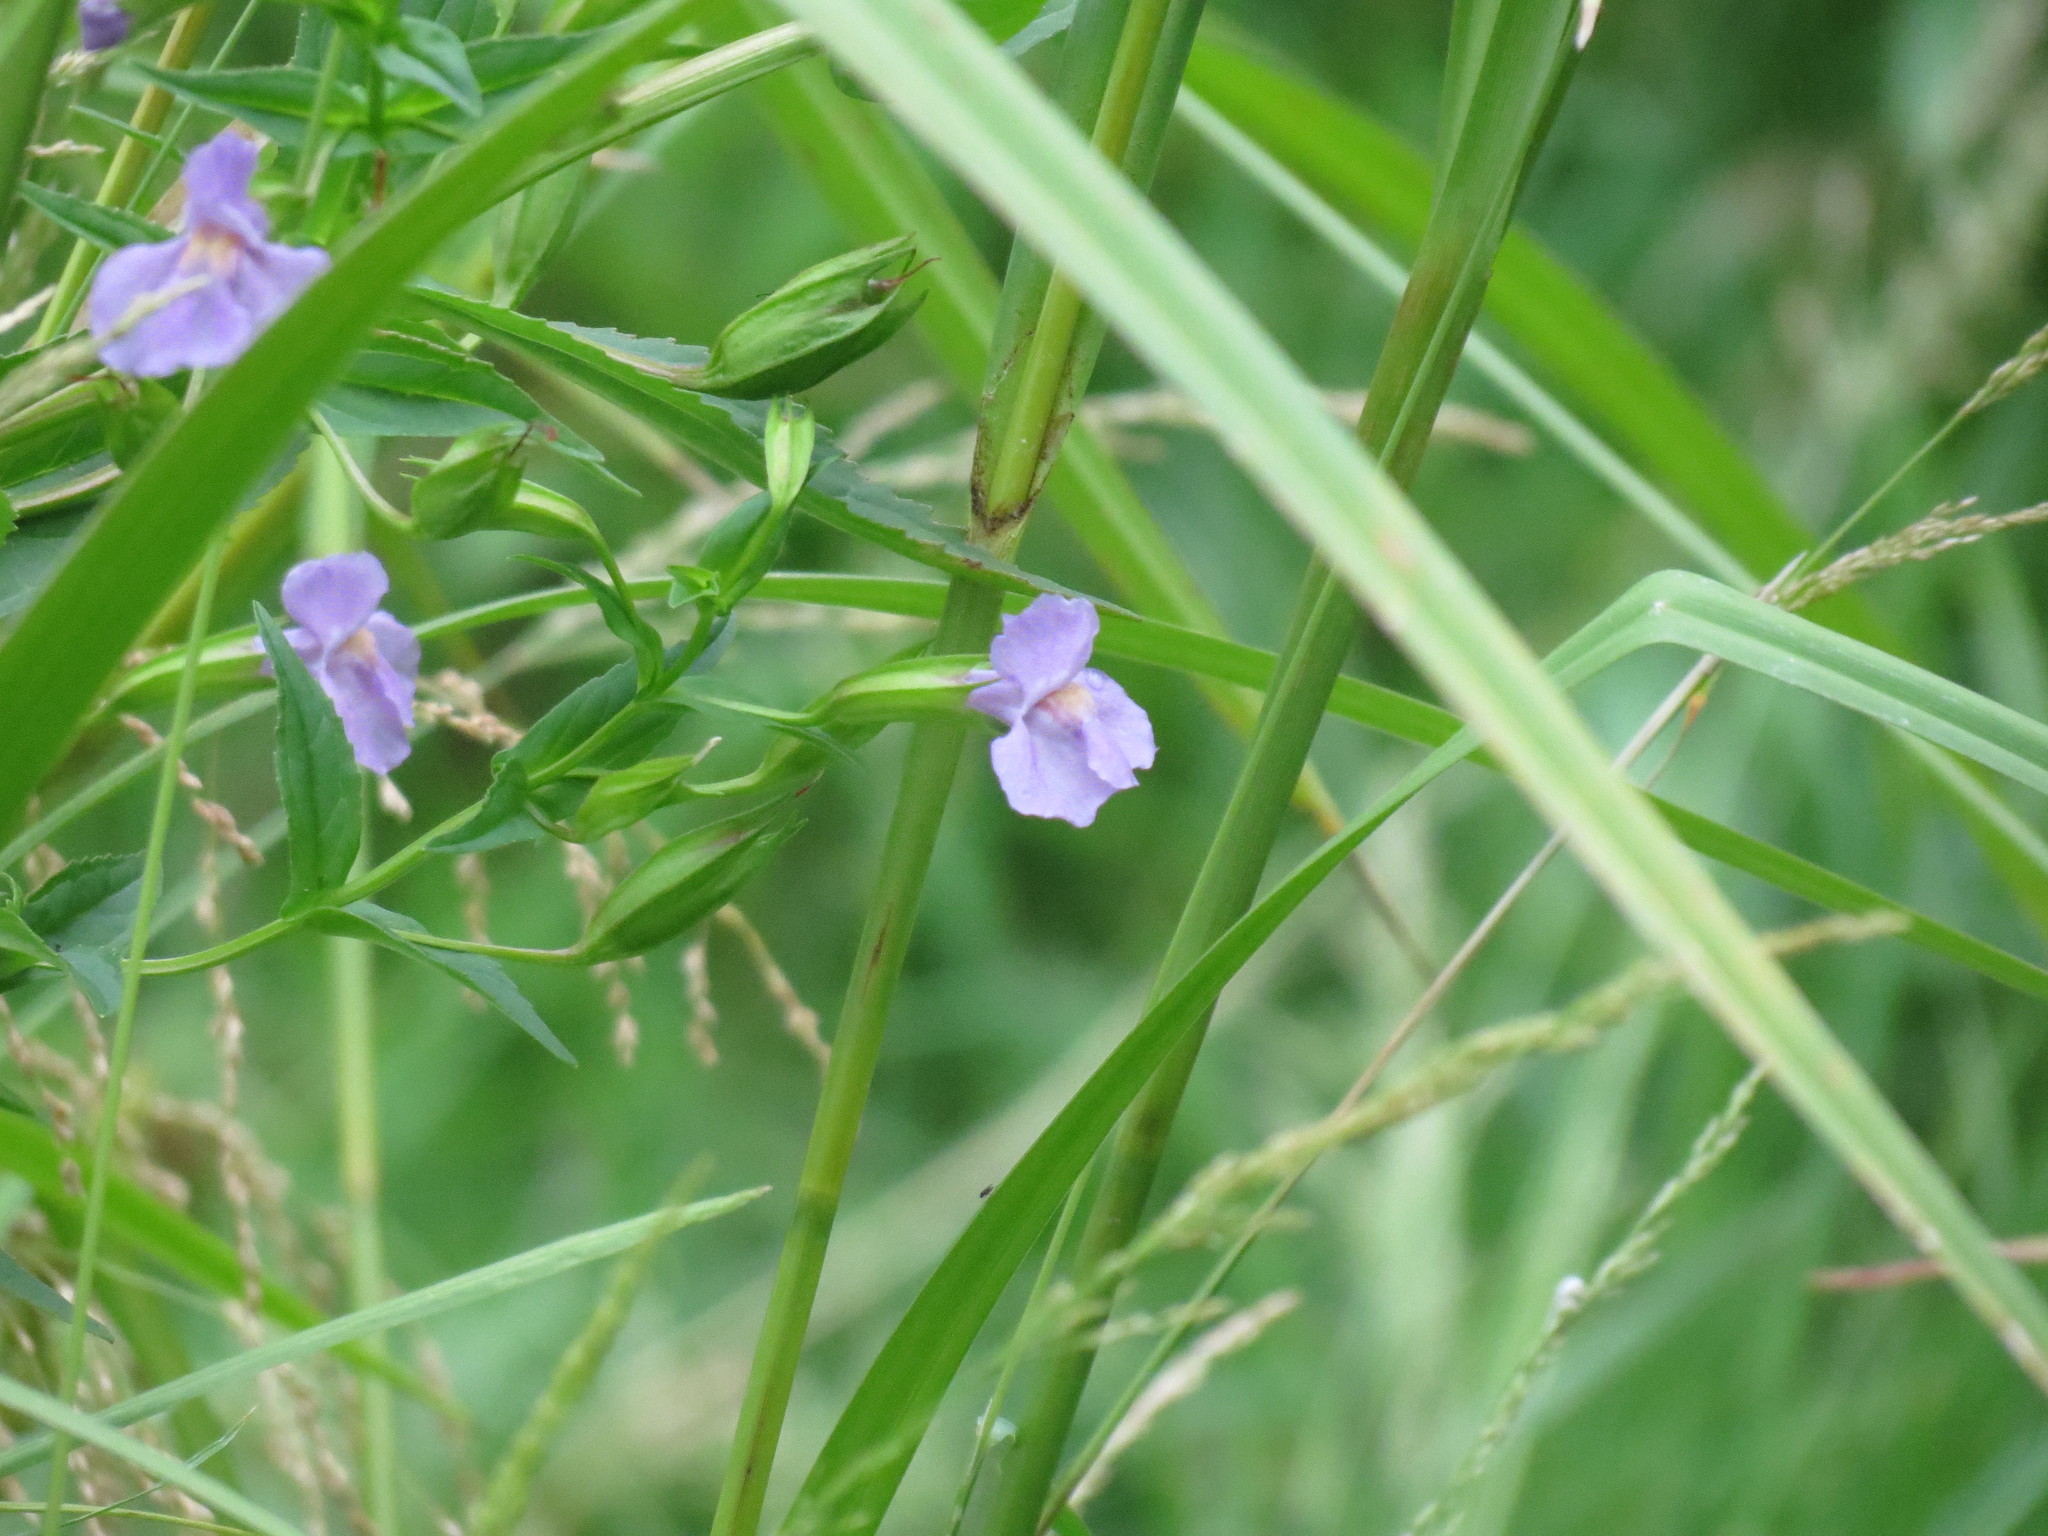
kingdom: Plantae
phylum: Tracheophyta
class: Magnoliopsida
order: Lamiales
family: Phrymaceae
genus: Mimulus
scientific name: Mimulus ringens
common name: Allegheny monkeyflower
